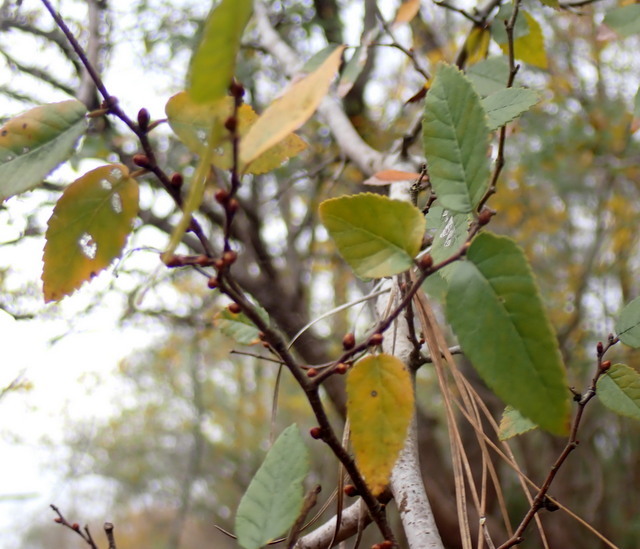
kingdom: Plantae
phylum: Tracheophyta
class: Magnoliopsida
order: Rosales
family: Ulmaceae
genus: Planera
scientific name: Planera aquatica
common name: Water-elm
